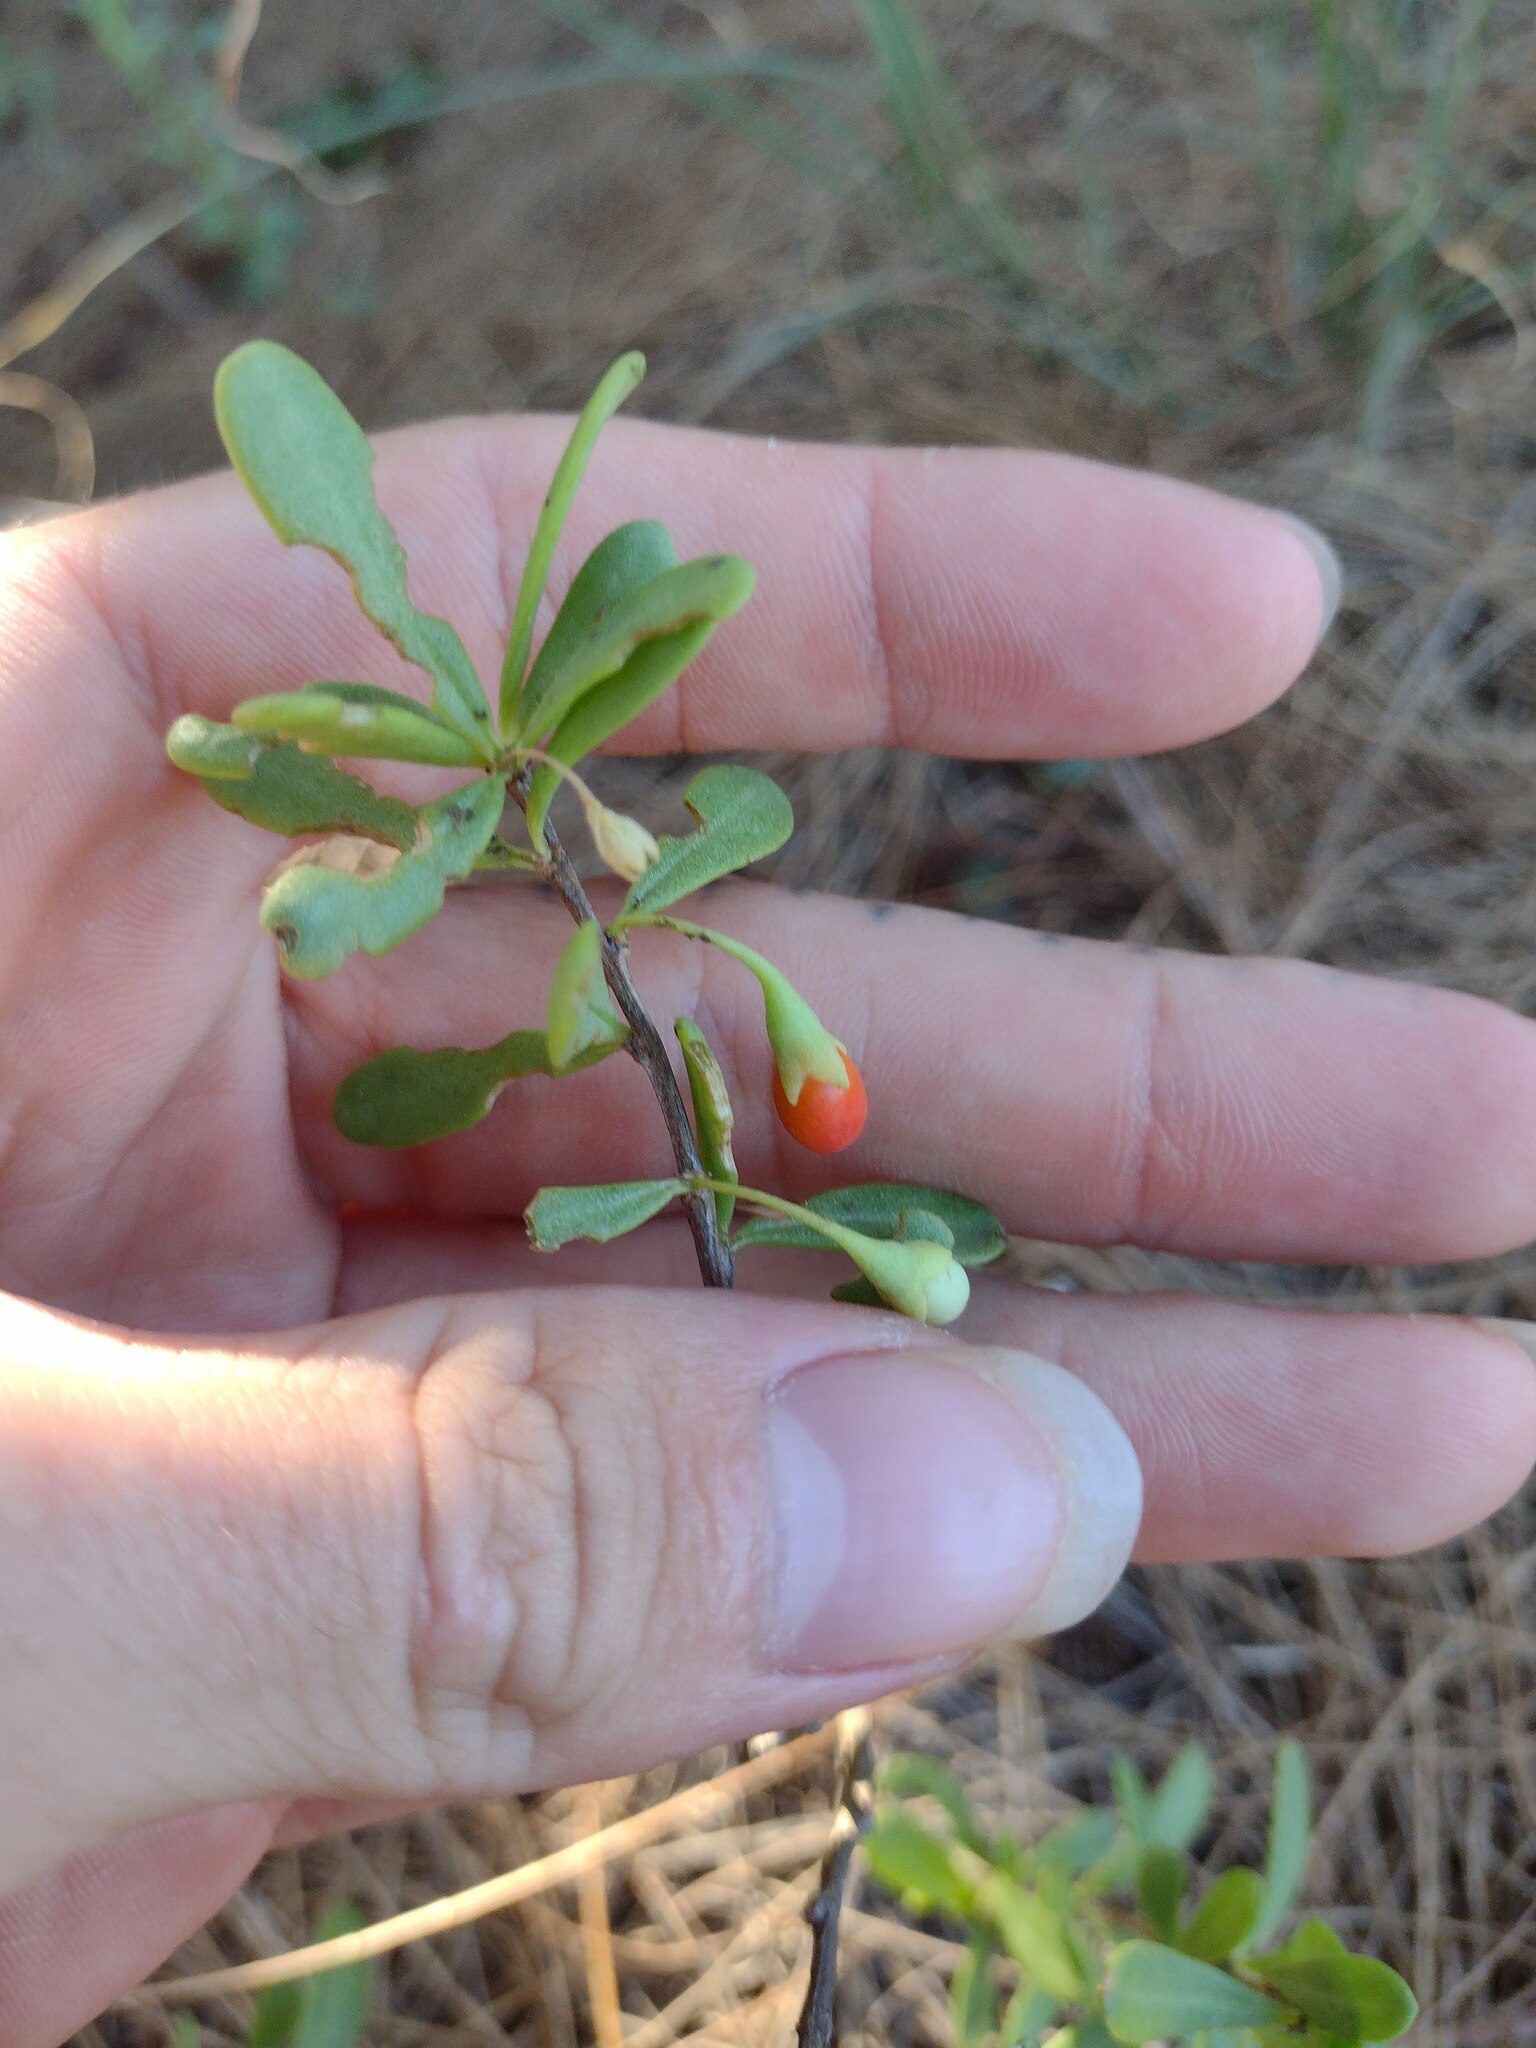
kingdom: Plantae
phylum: Tracheophyta
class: Magnoliopsida
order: Solanales
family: Solanaceae
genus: Lycium
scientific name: Lycium sandwicense
